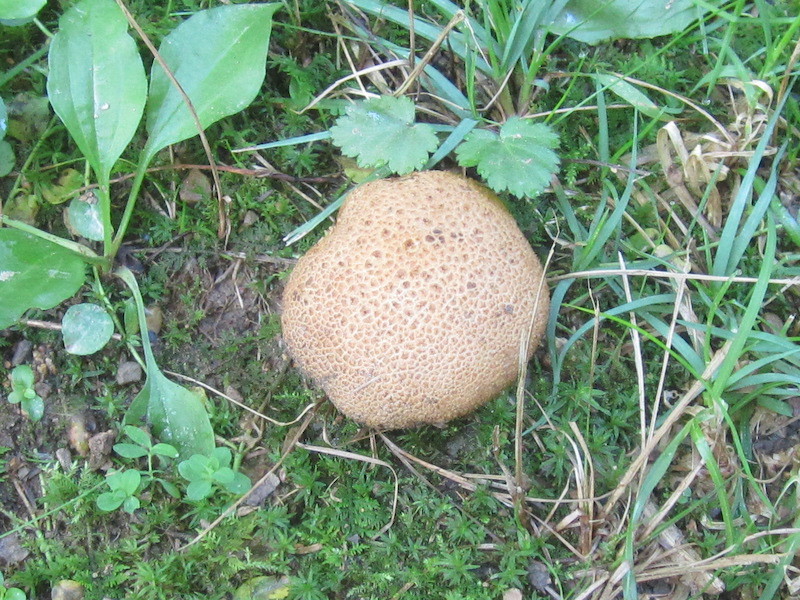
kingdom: Fungi
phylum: Basidiomycota
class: Agaricomycetes
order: Boletales
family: Sclerodermataceae
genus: Scleroderma
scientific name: Scleroderma citrinum
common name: Common earthball
